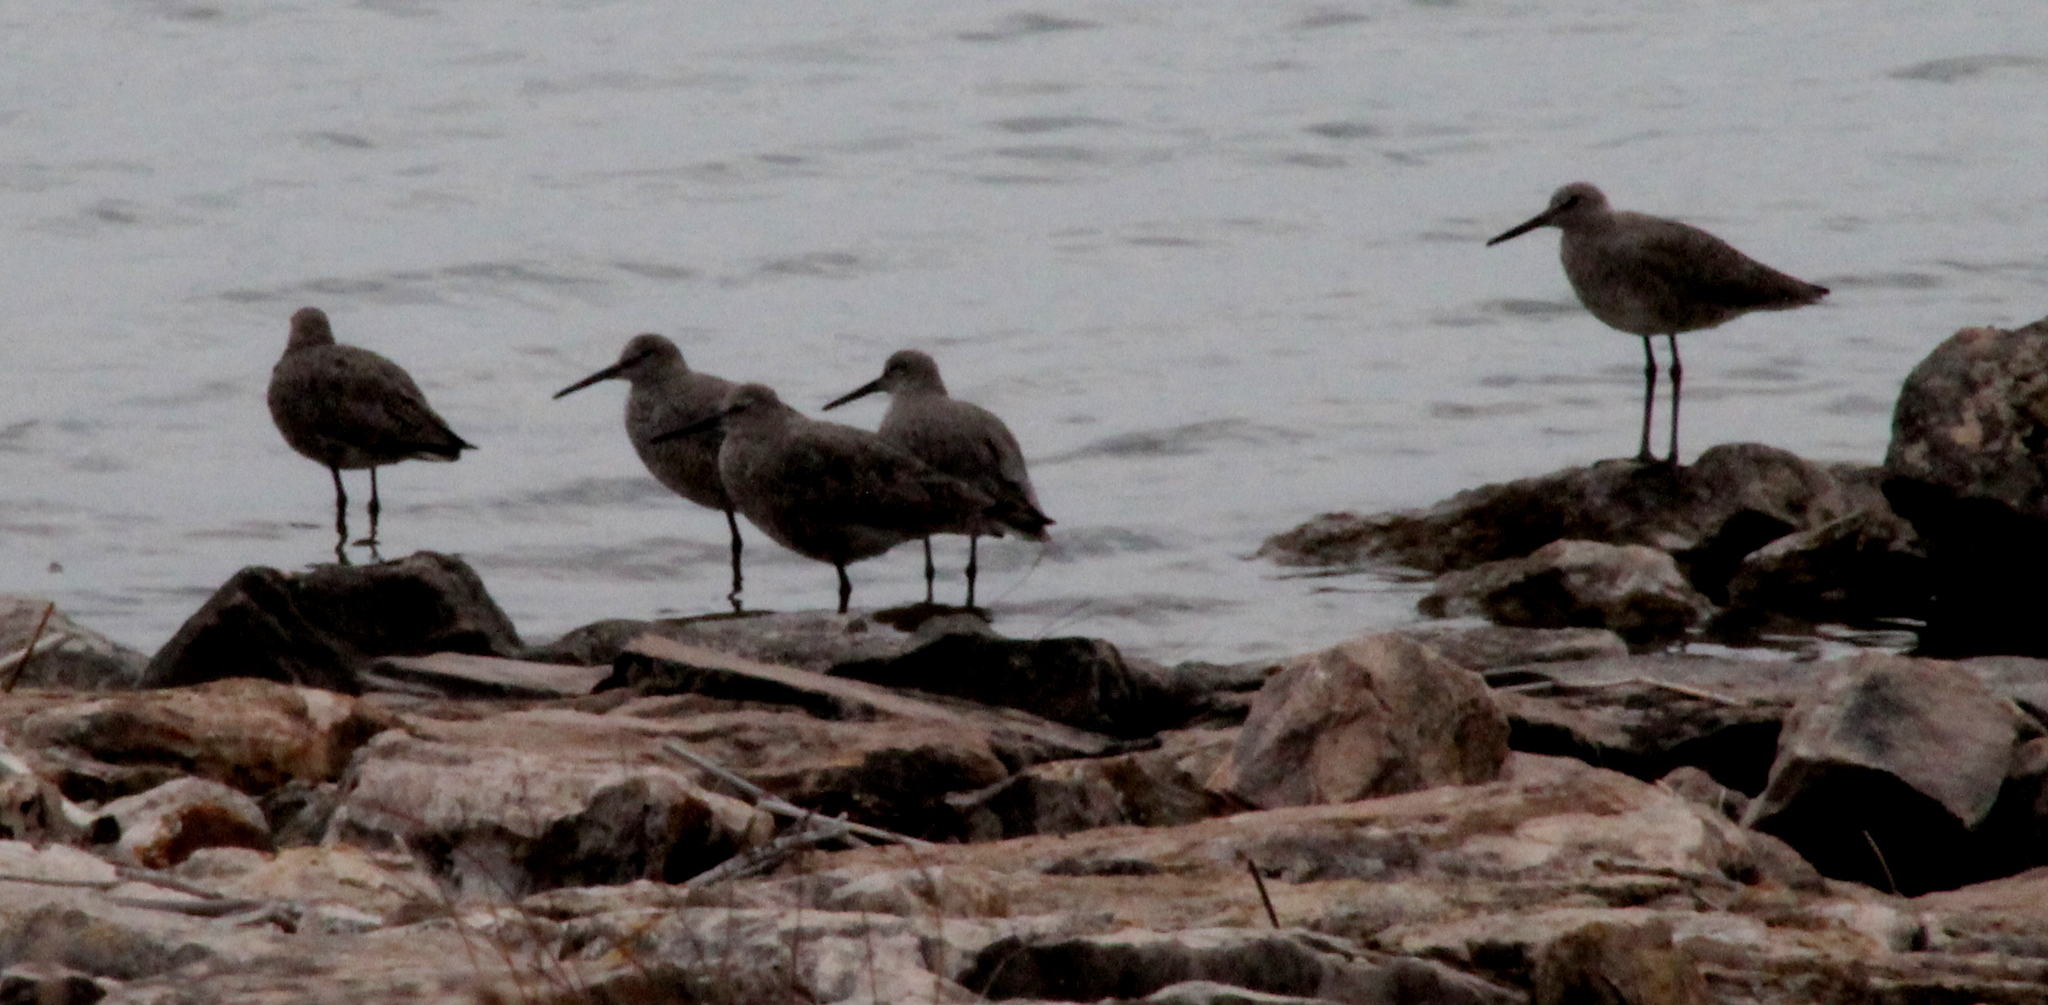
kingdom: Animalia
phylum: Chordata
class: Aves
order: Charadriiformes
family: Scolopacidae
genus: Tringa
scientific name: Tringa semipalmata
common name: Willet
